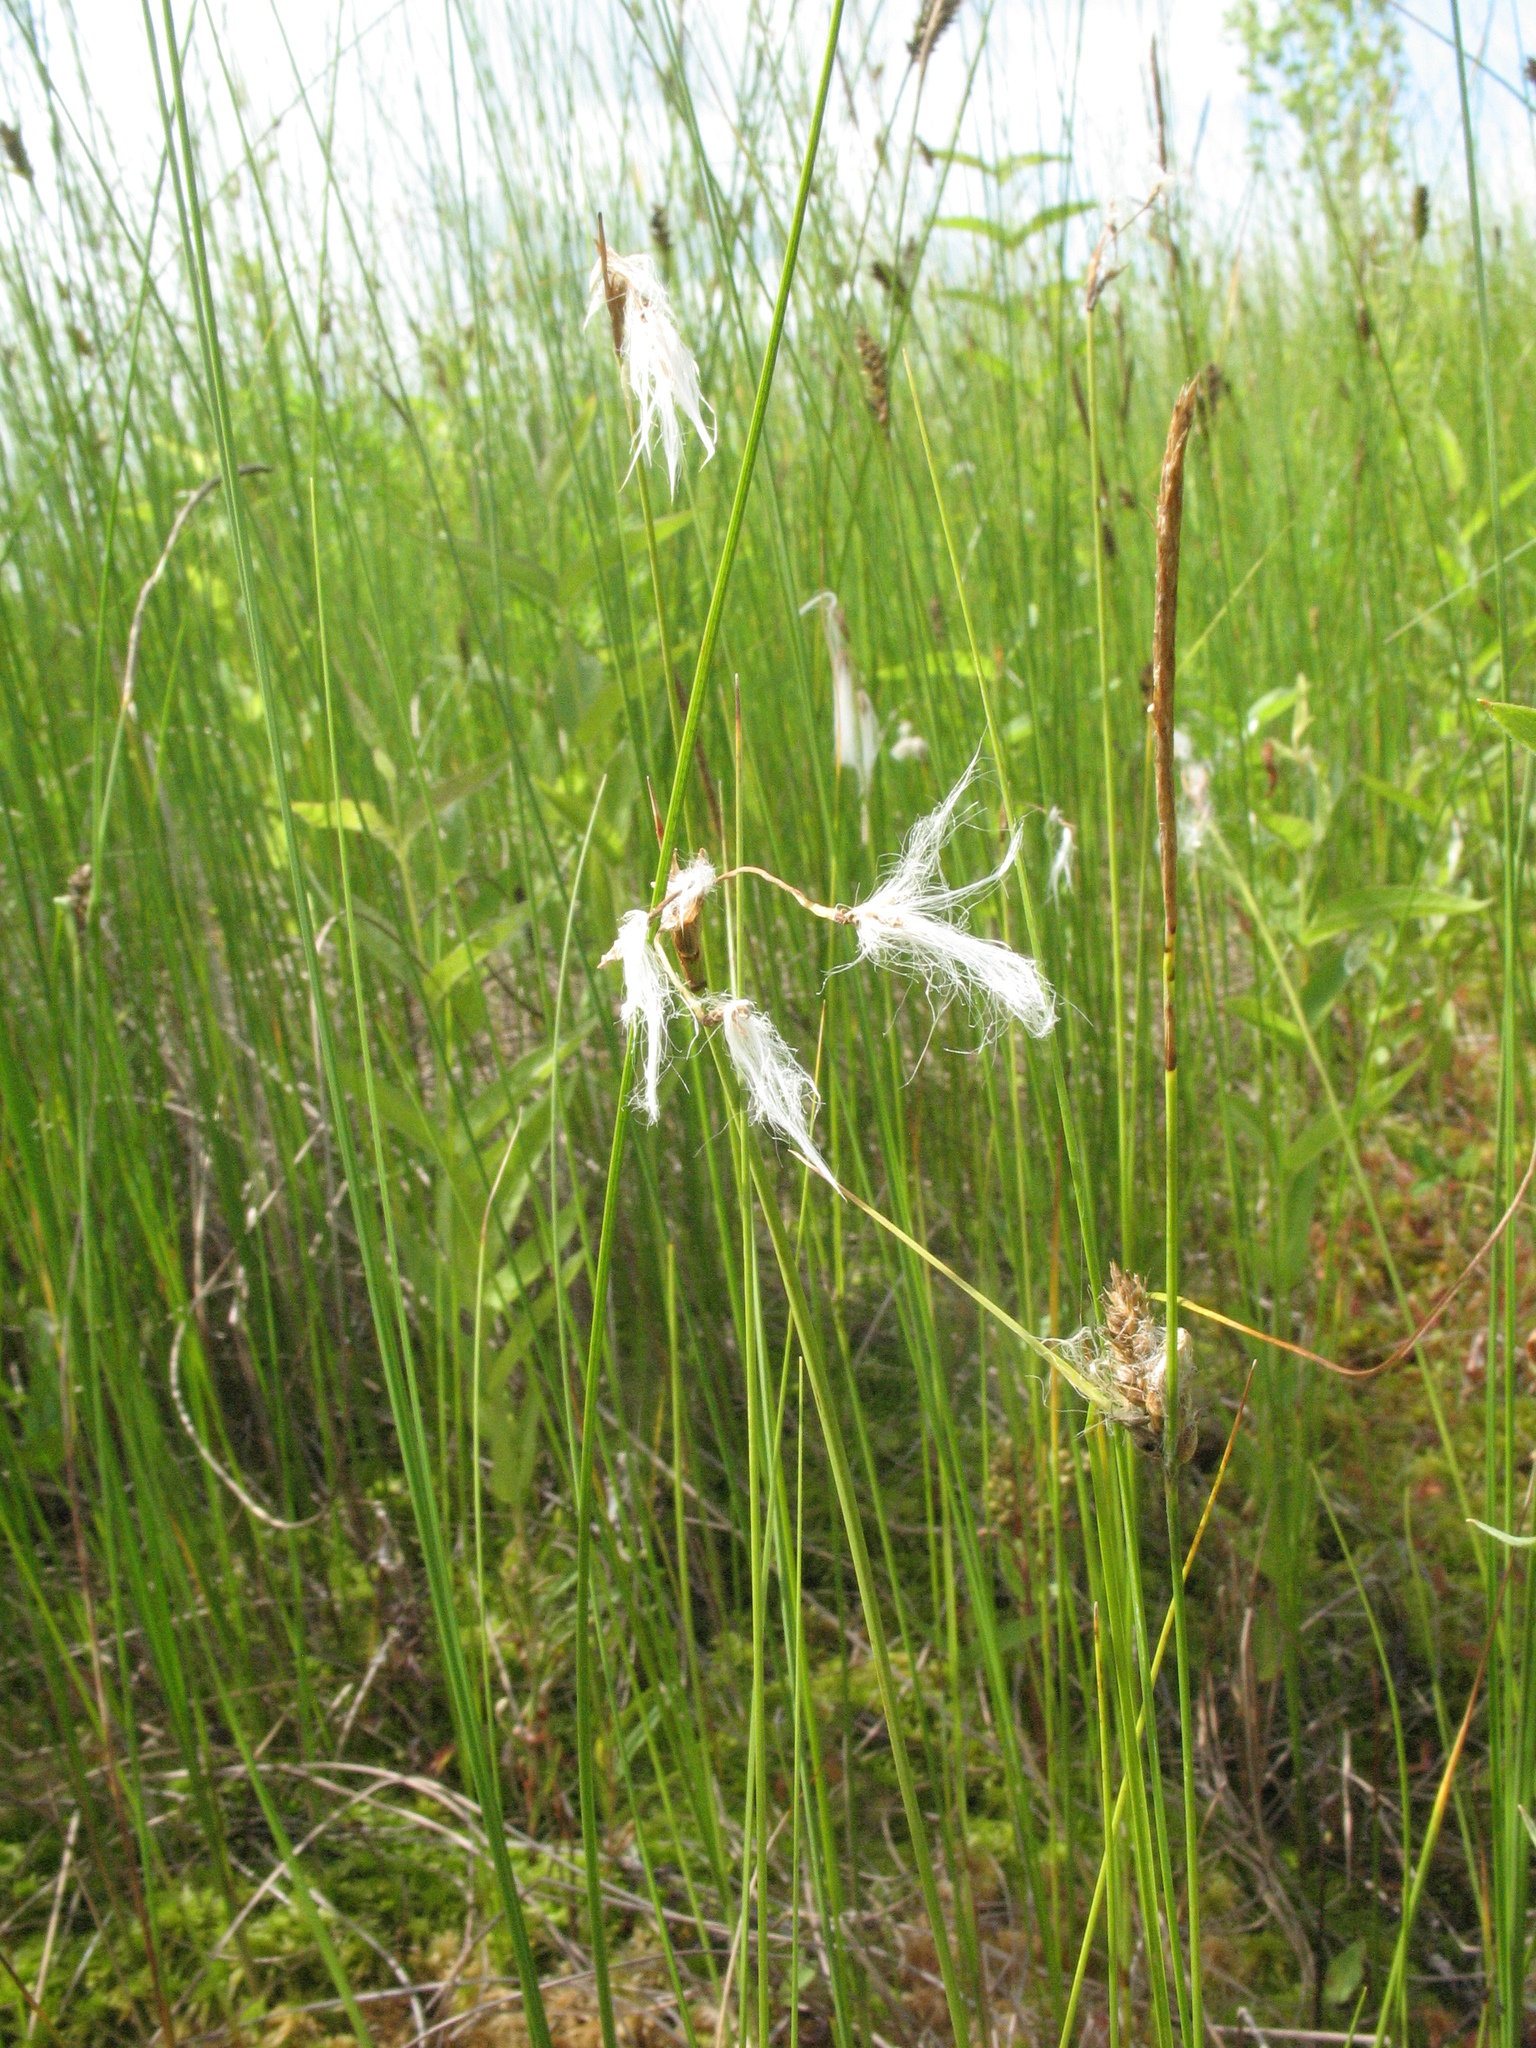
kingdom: Plantae
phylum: Tracheophyta
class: Liliopsida
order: Poales
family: Cyperaceae
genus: Eriophorum
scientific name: Eriophorum gracile
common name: Slender cottongrass
